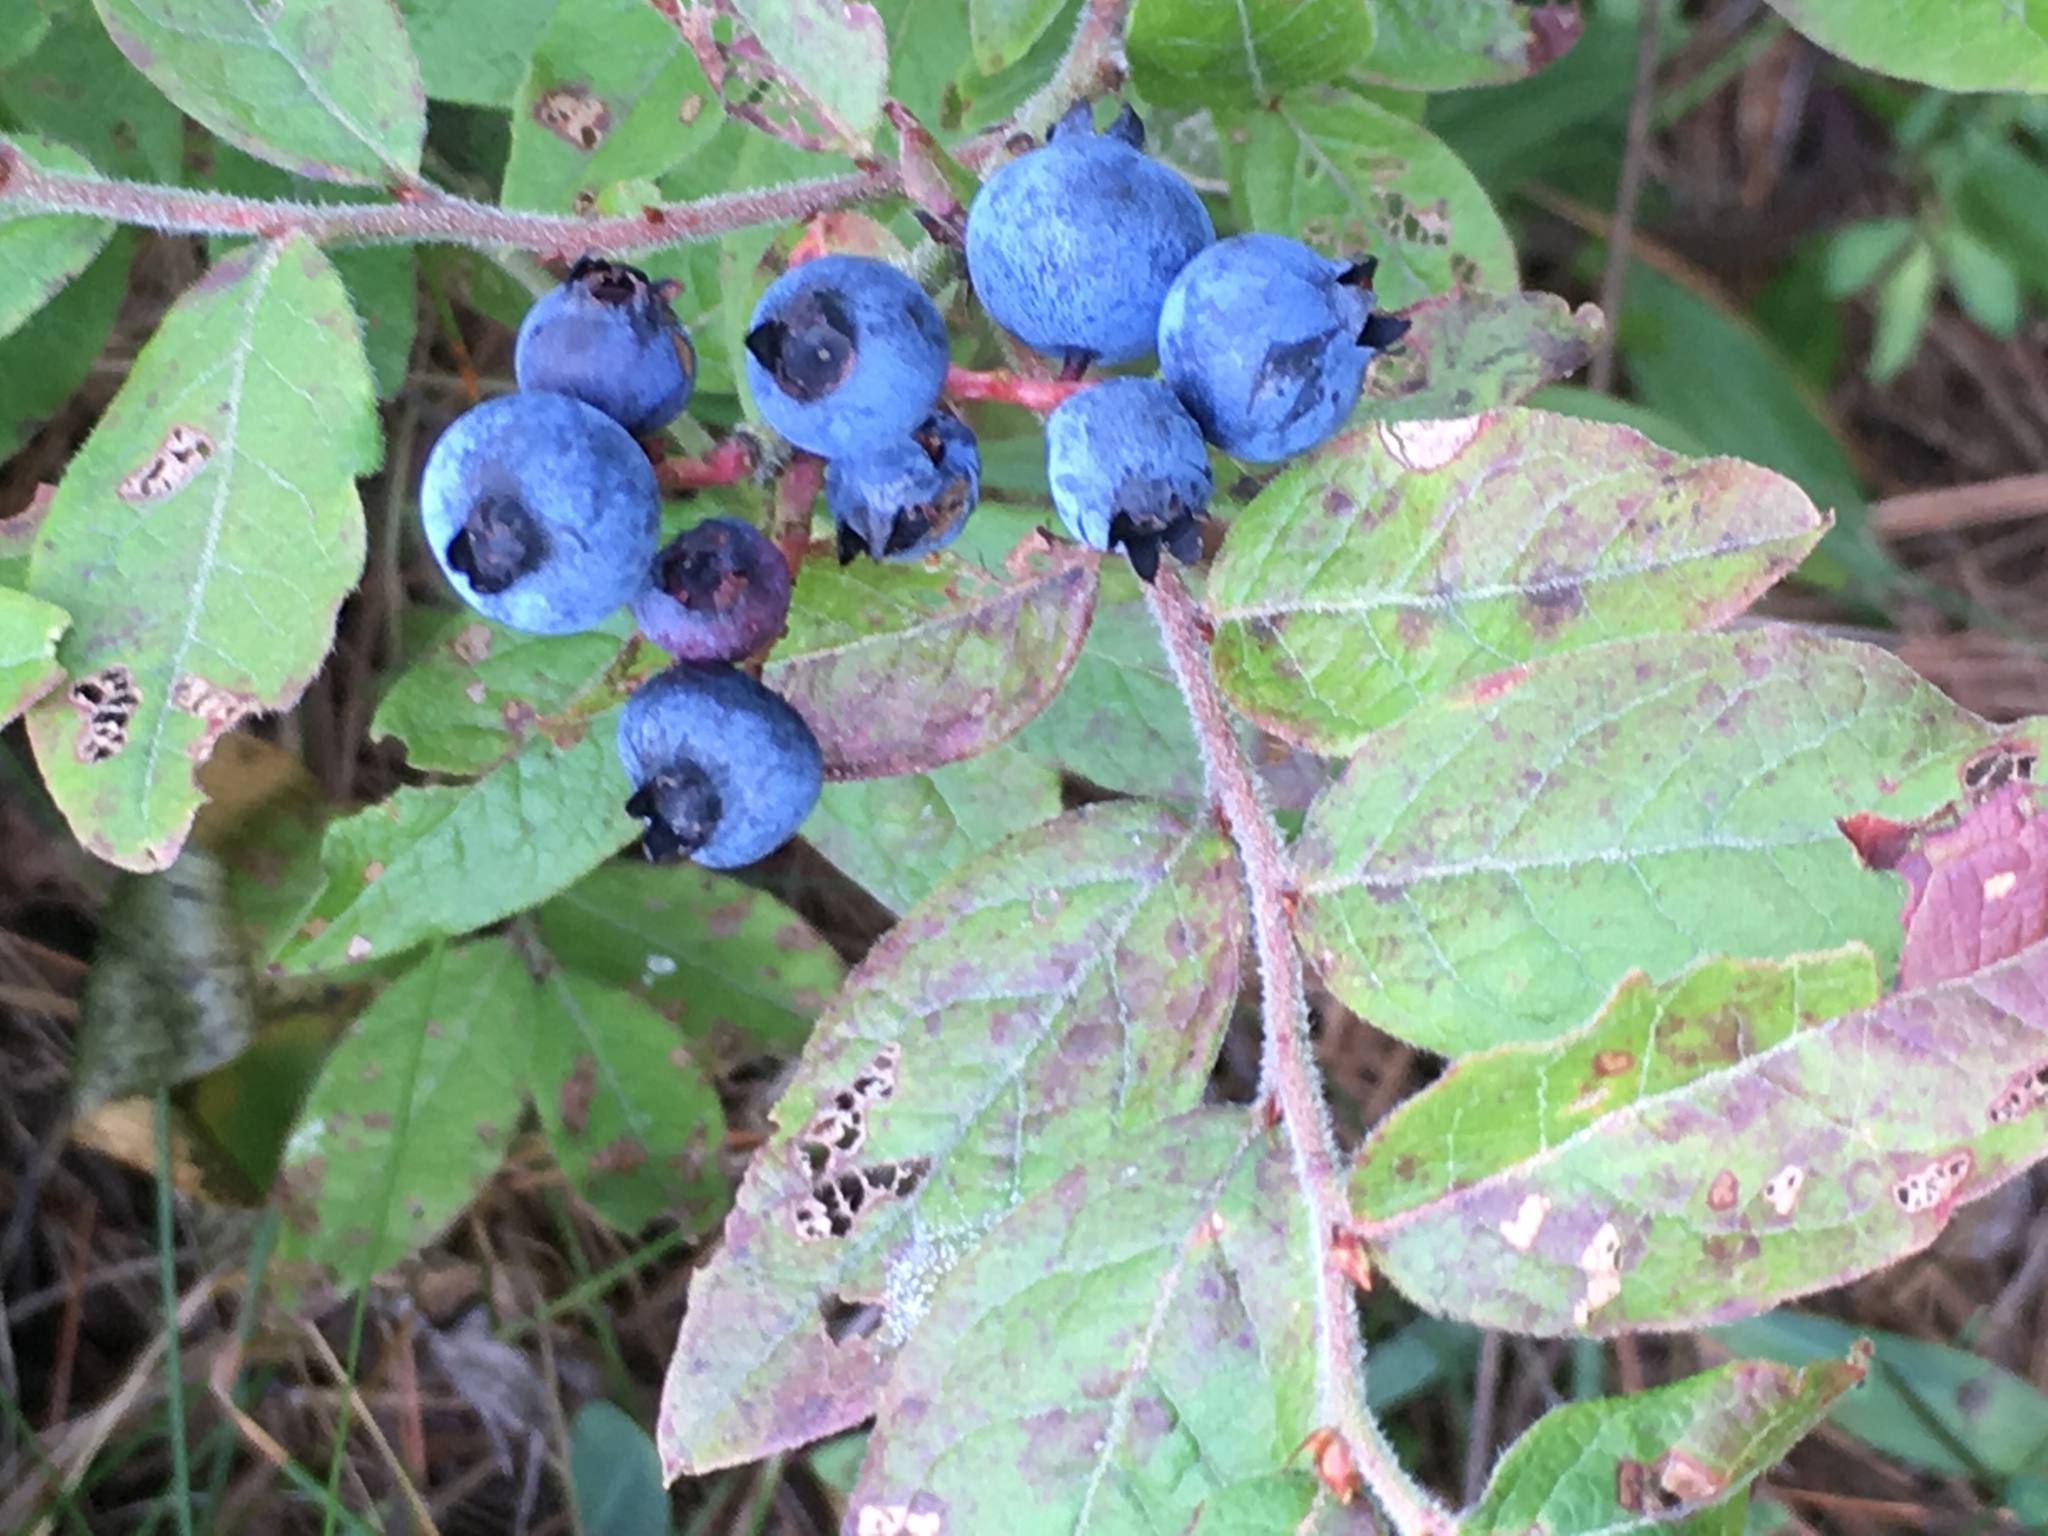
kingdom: Plantae
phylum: Tracheophyta
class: Magnoliopsida
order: Ericales
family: Ericaceae
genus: Vaccinium
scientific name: Vaccinium myrtilloides
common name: Canada blueberry
